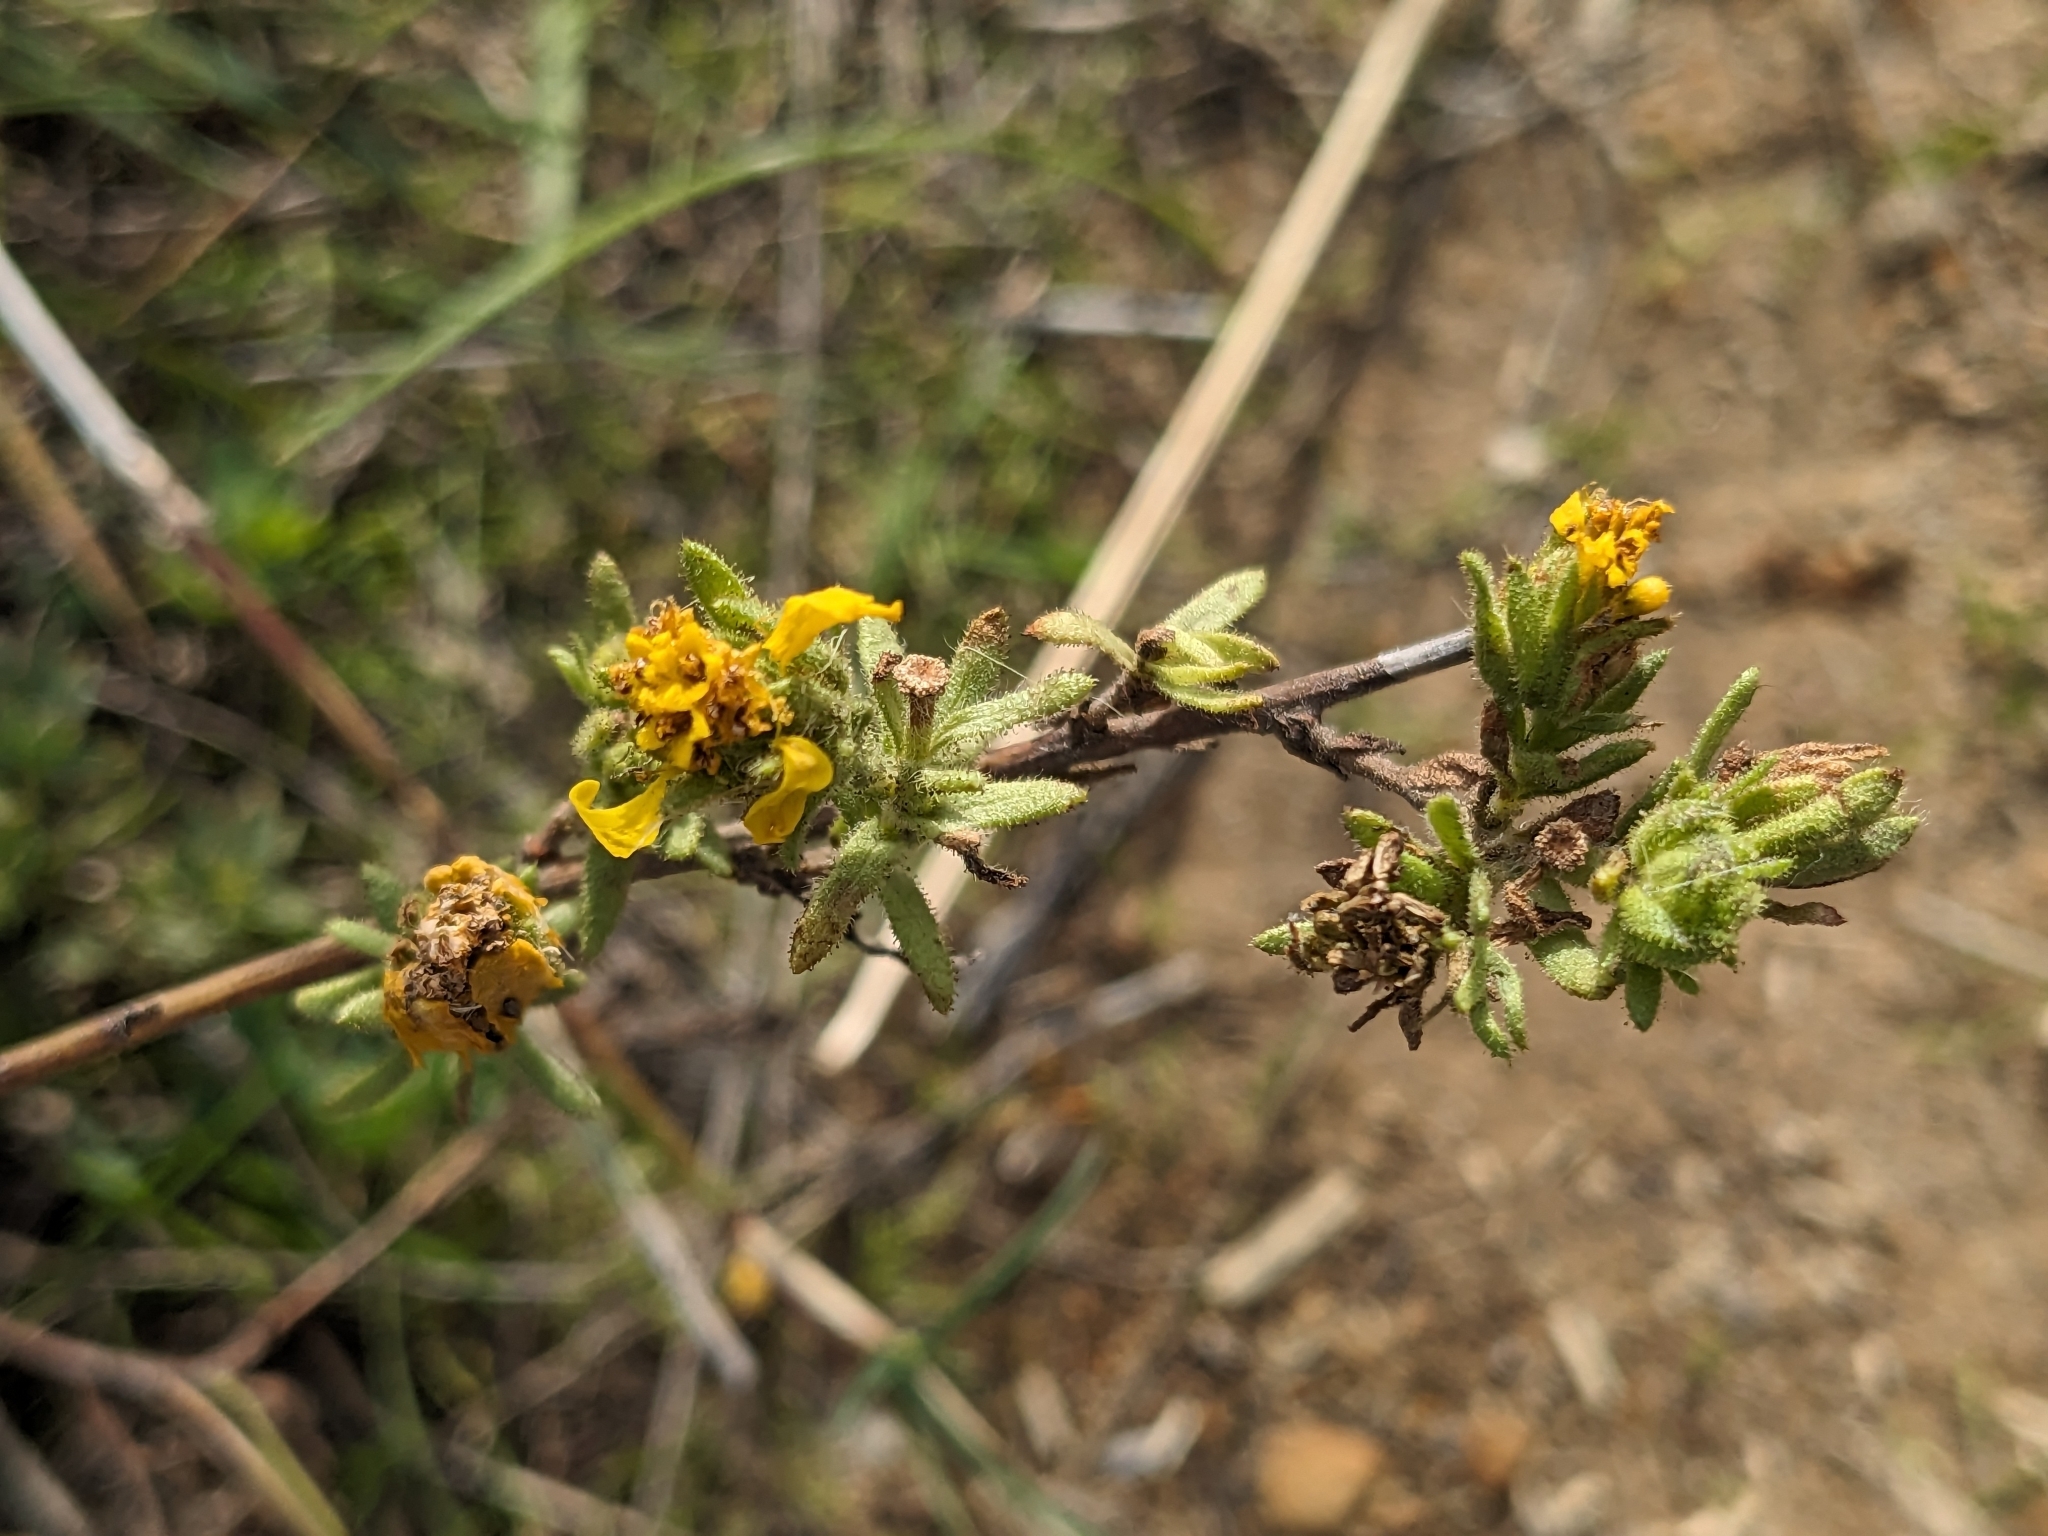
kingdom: Plantae
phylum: Tracheophyta
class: Magnoliopsida
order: Asterales
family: Asteraceae
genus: Deinandra
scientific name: Deinandra corymbosa
